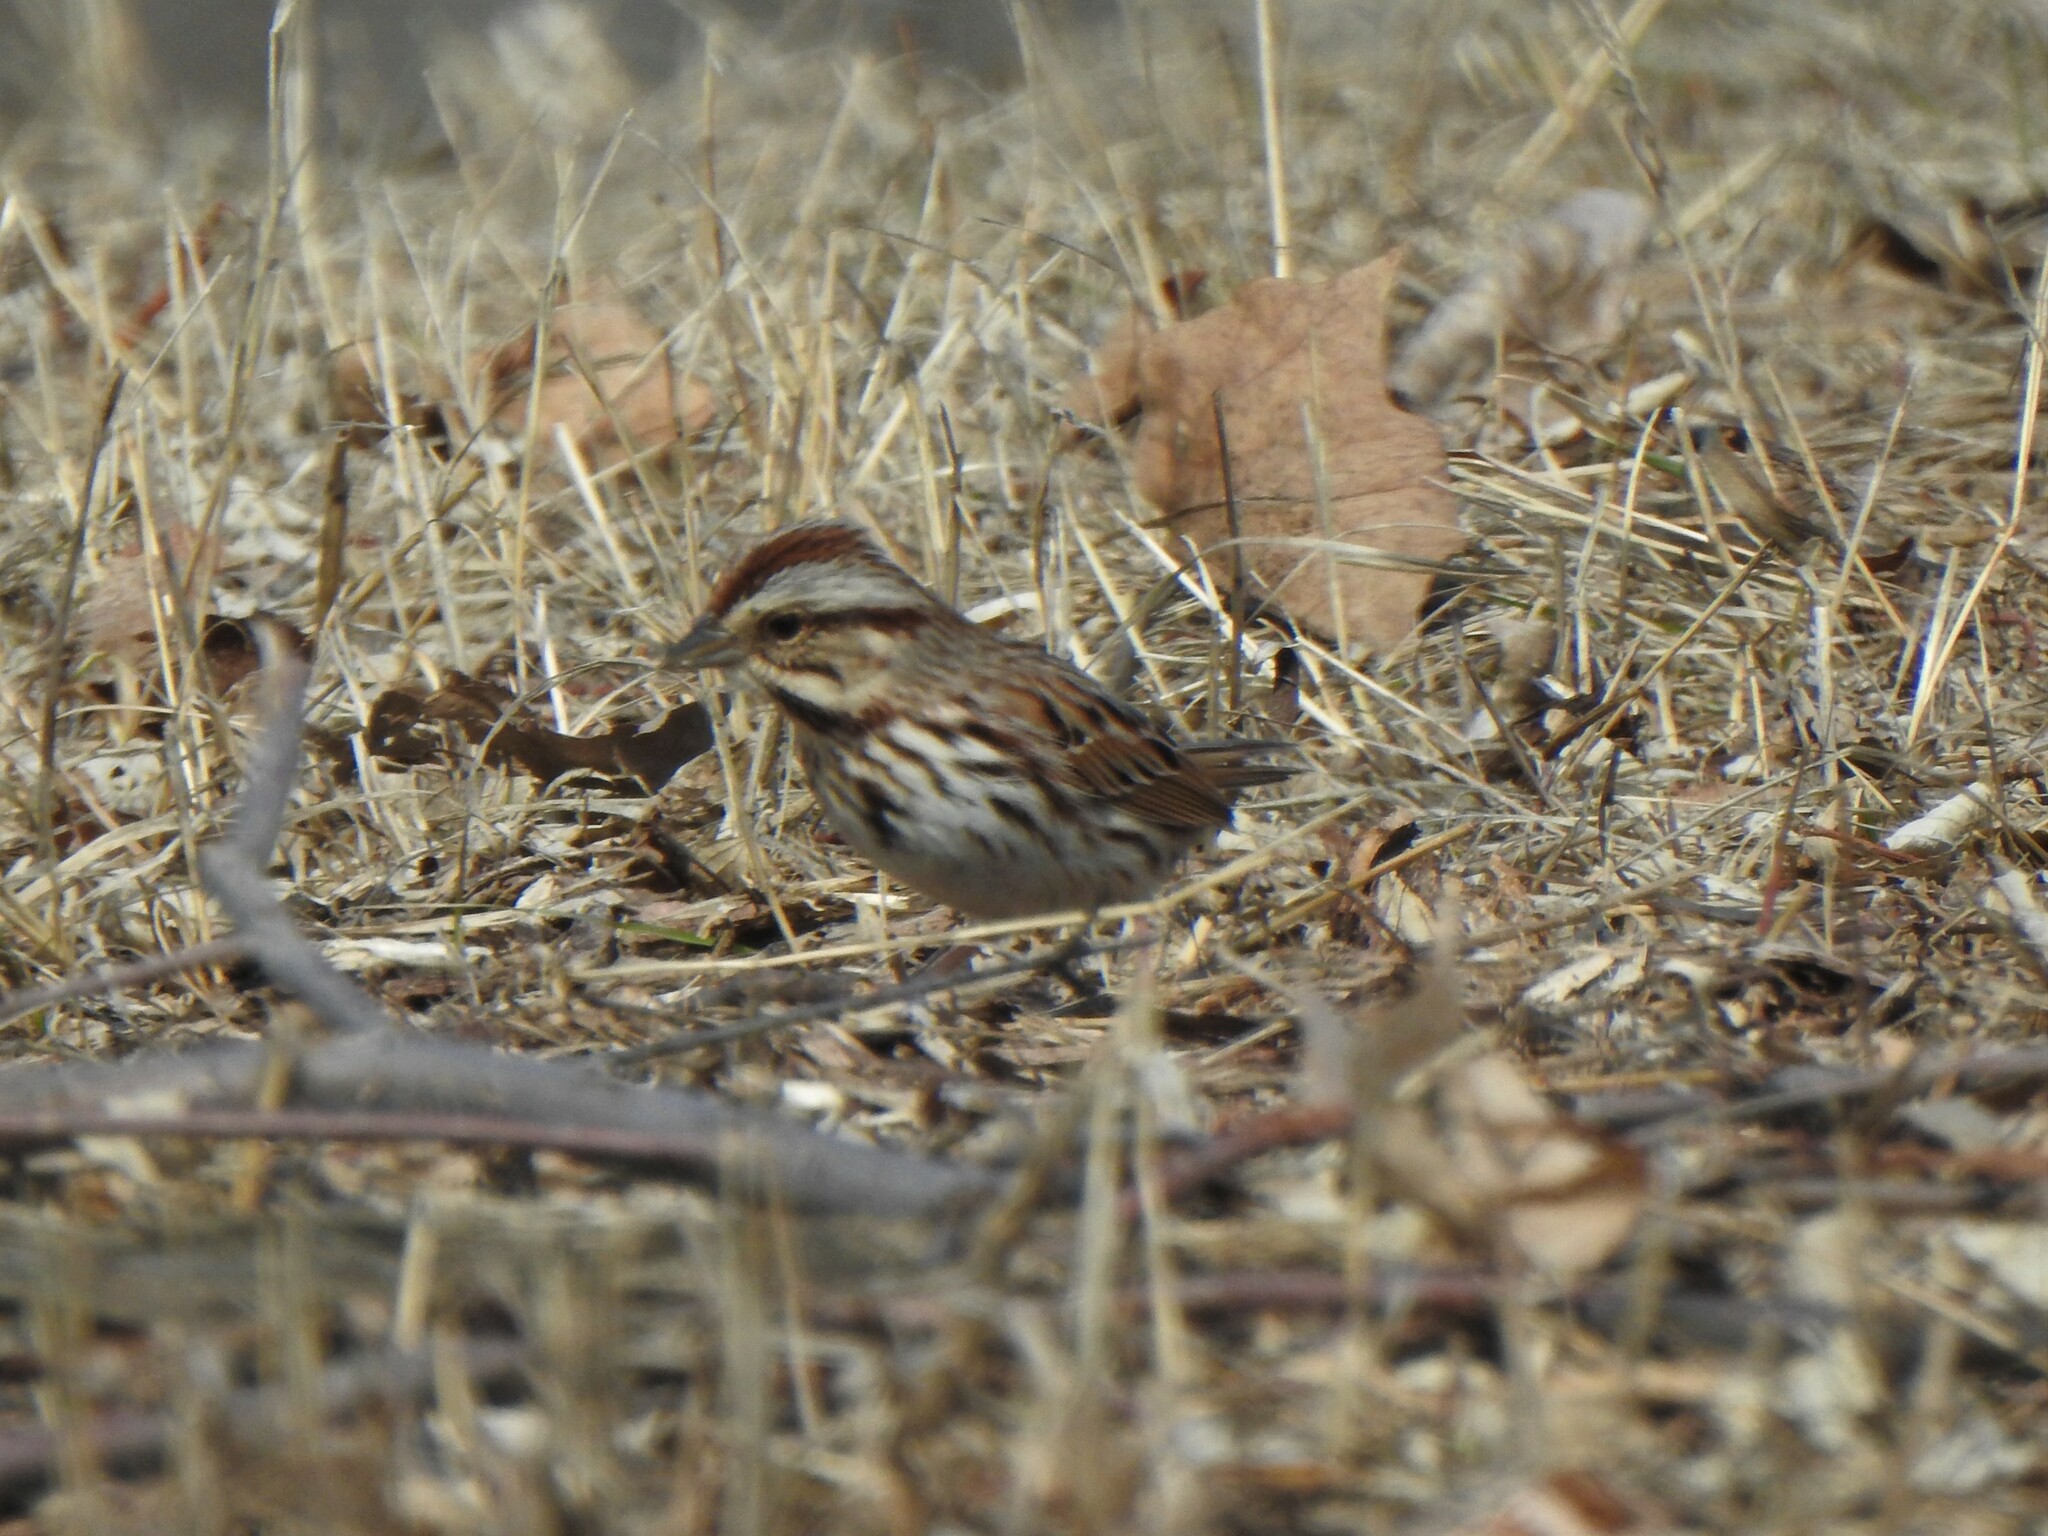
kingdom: Animalia
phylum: Chordata
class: Aves
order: Passeriformes
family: Passerellidae
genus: Melospiza
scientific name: Melospiza melodia
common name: Song sparrow
